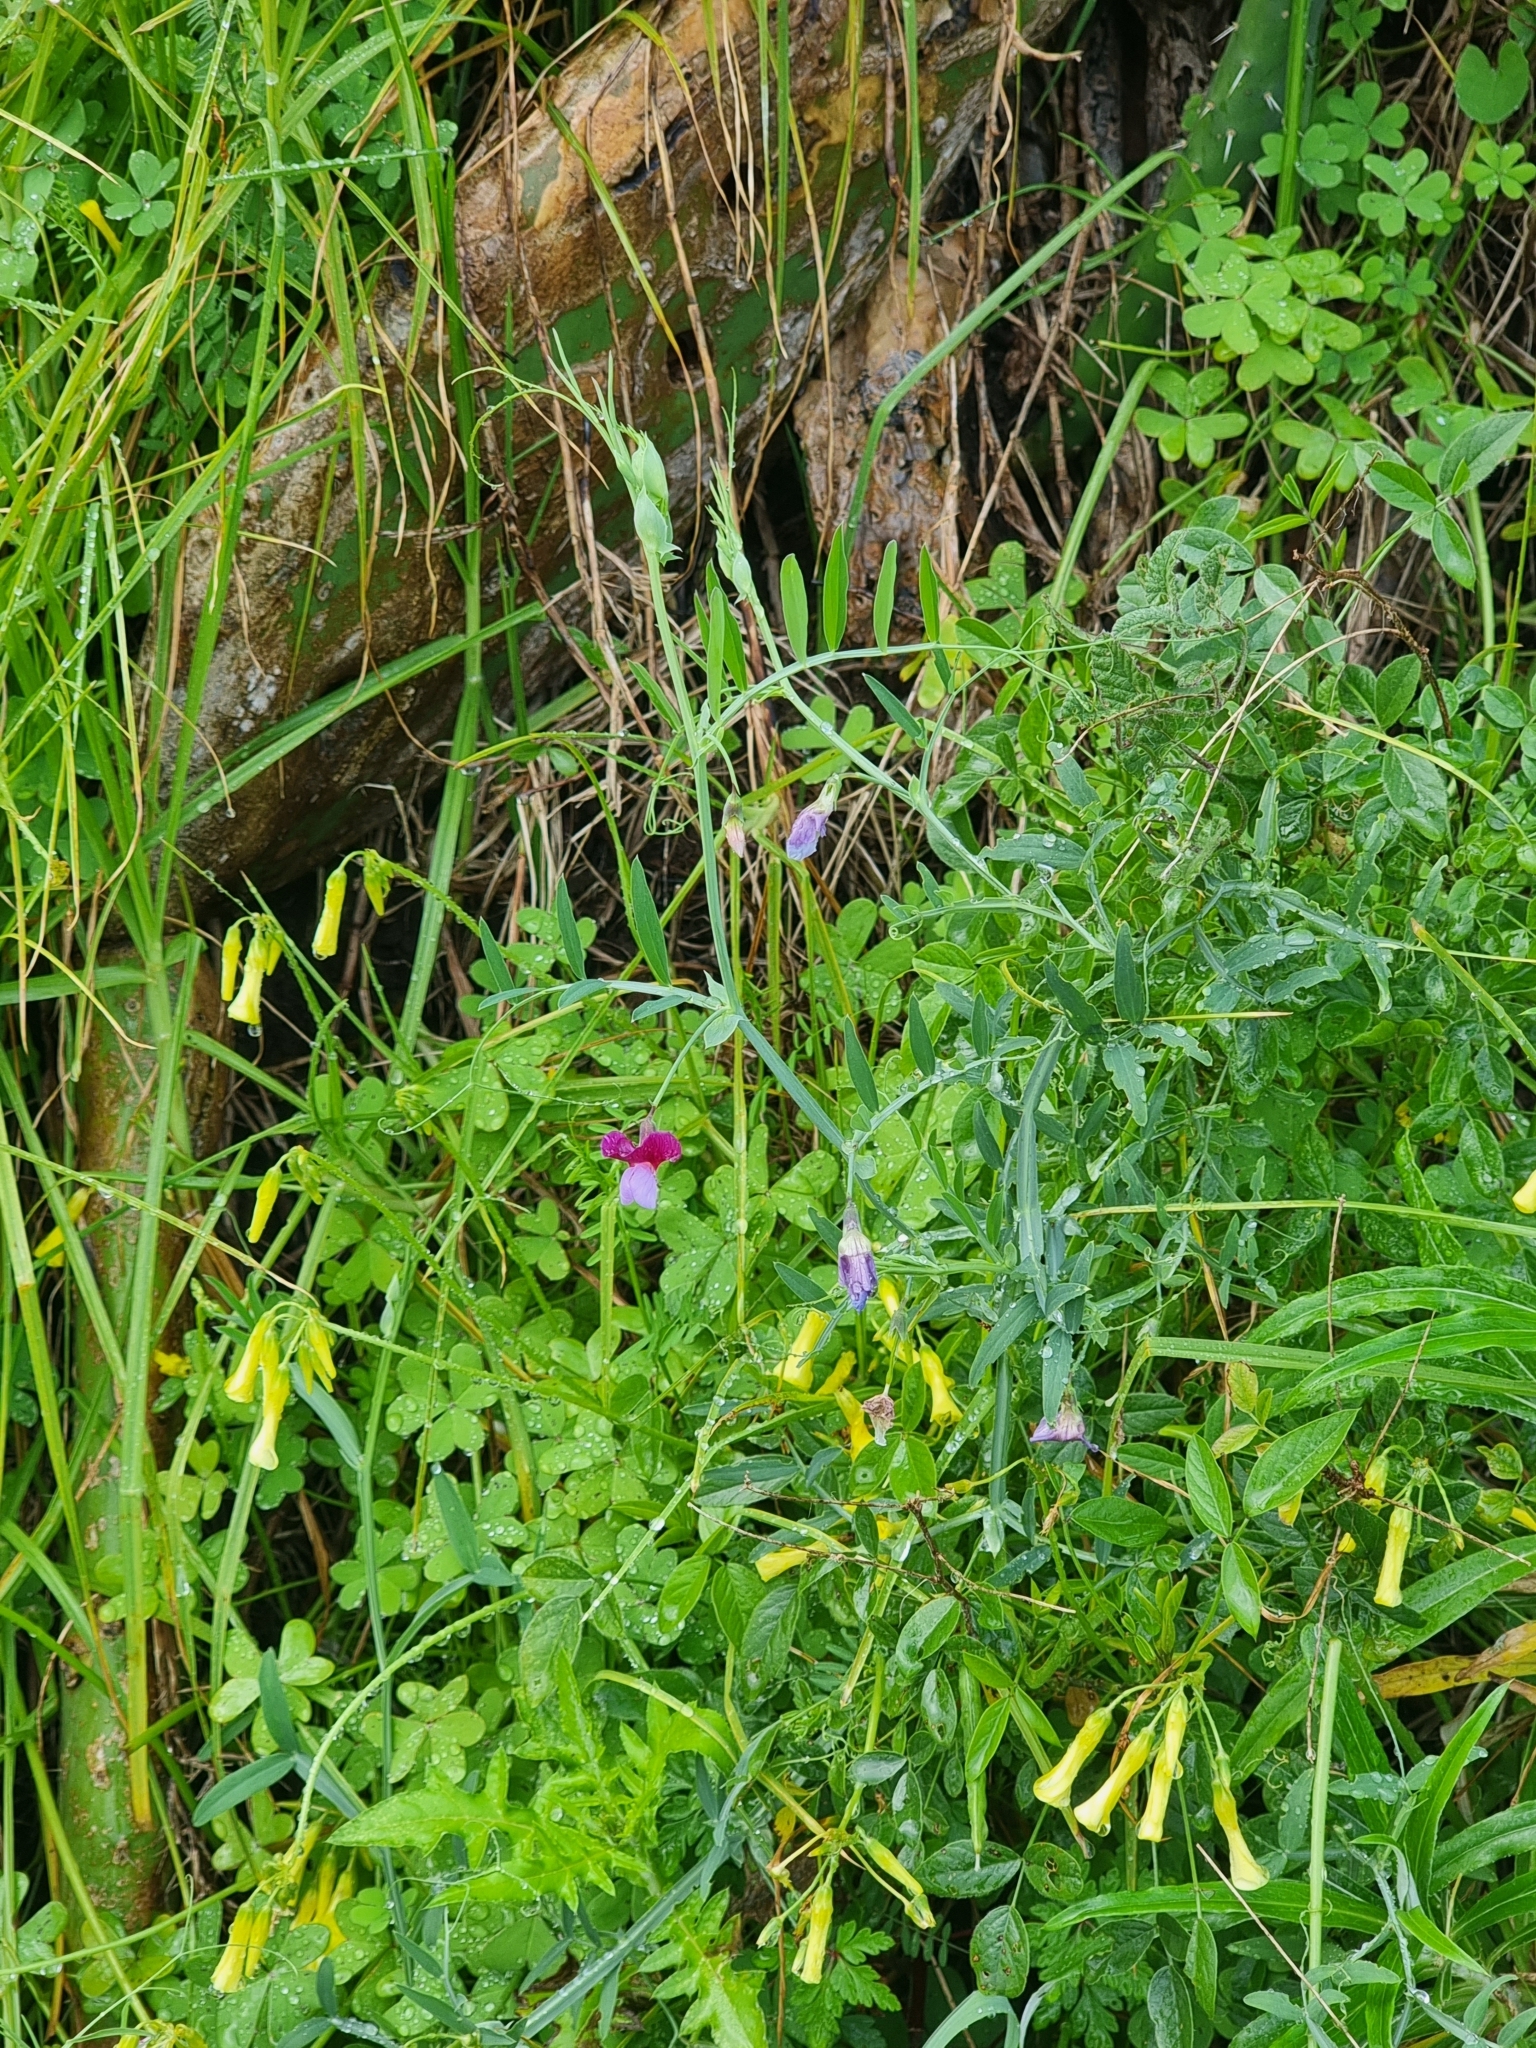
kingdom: Plantae
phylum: Tracheophyta
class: Magnoliopsida
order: Fabales
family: Fabaceae
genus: Lathyrus
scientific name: Lathyrus clymenum
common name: Spanish vetchling
